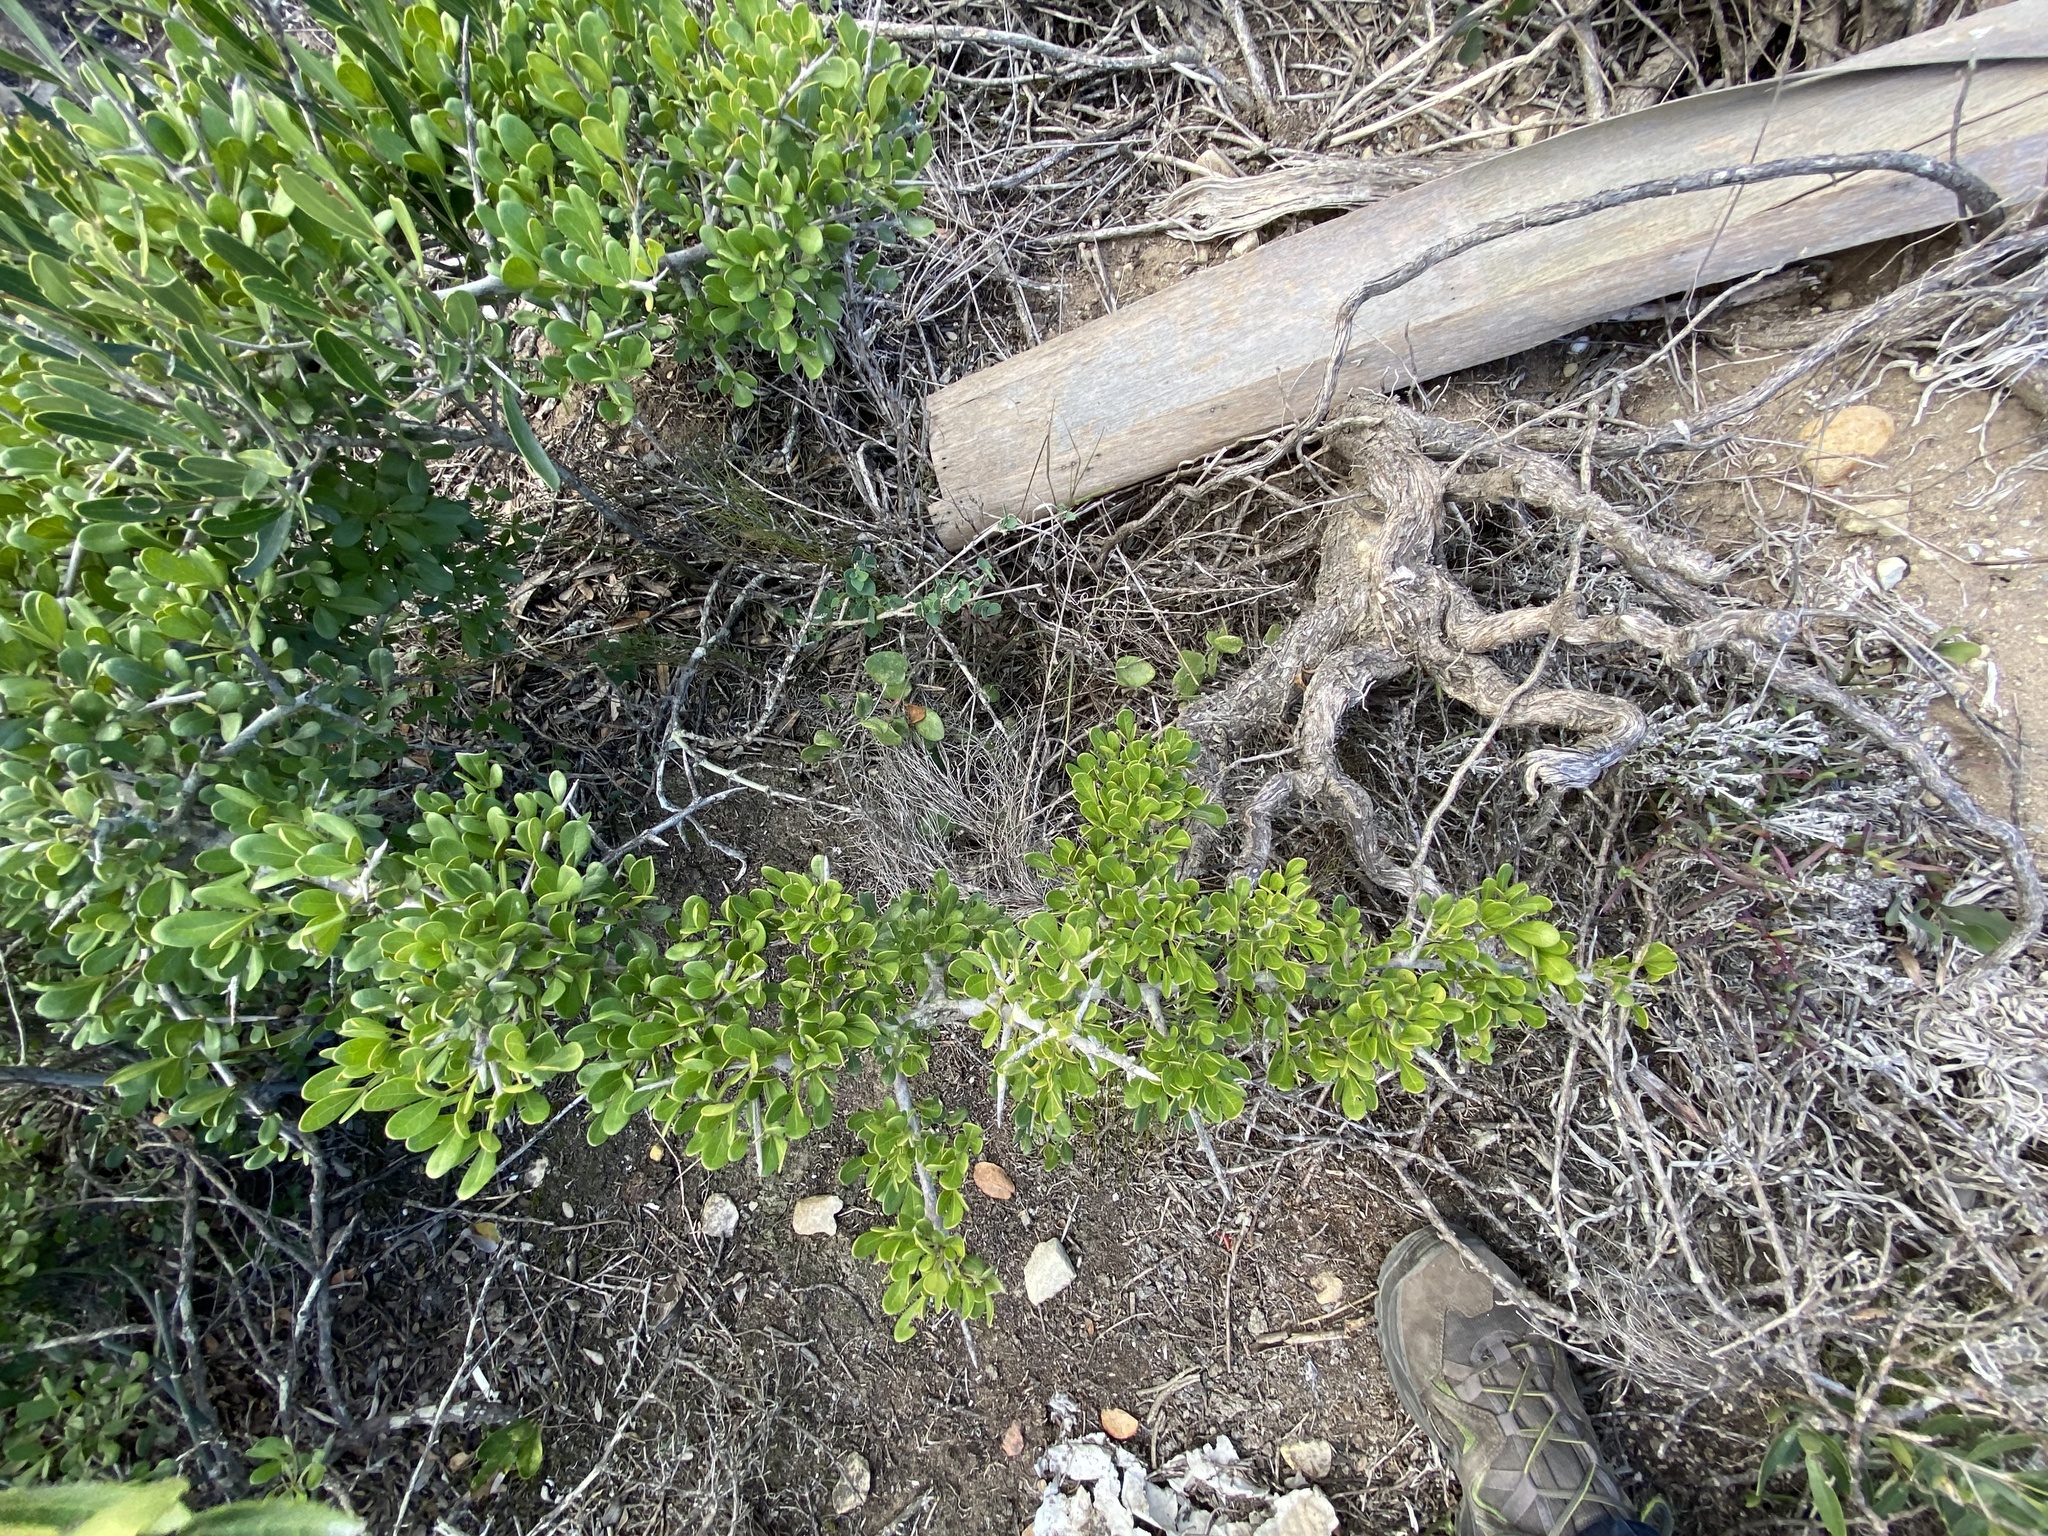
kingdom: Plantae
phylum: Tracheophyta
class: Magnoliopsida
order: Sapindales
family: Anacardiaceae
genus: Searsia
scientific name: Searsia pterota
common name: Winged currant
